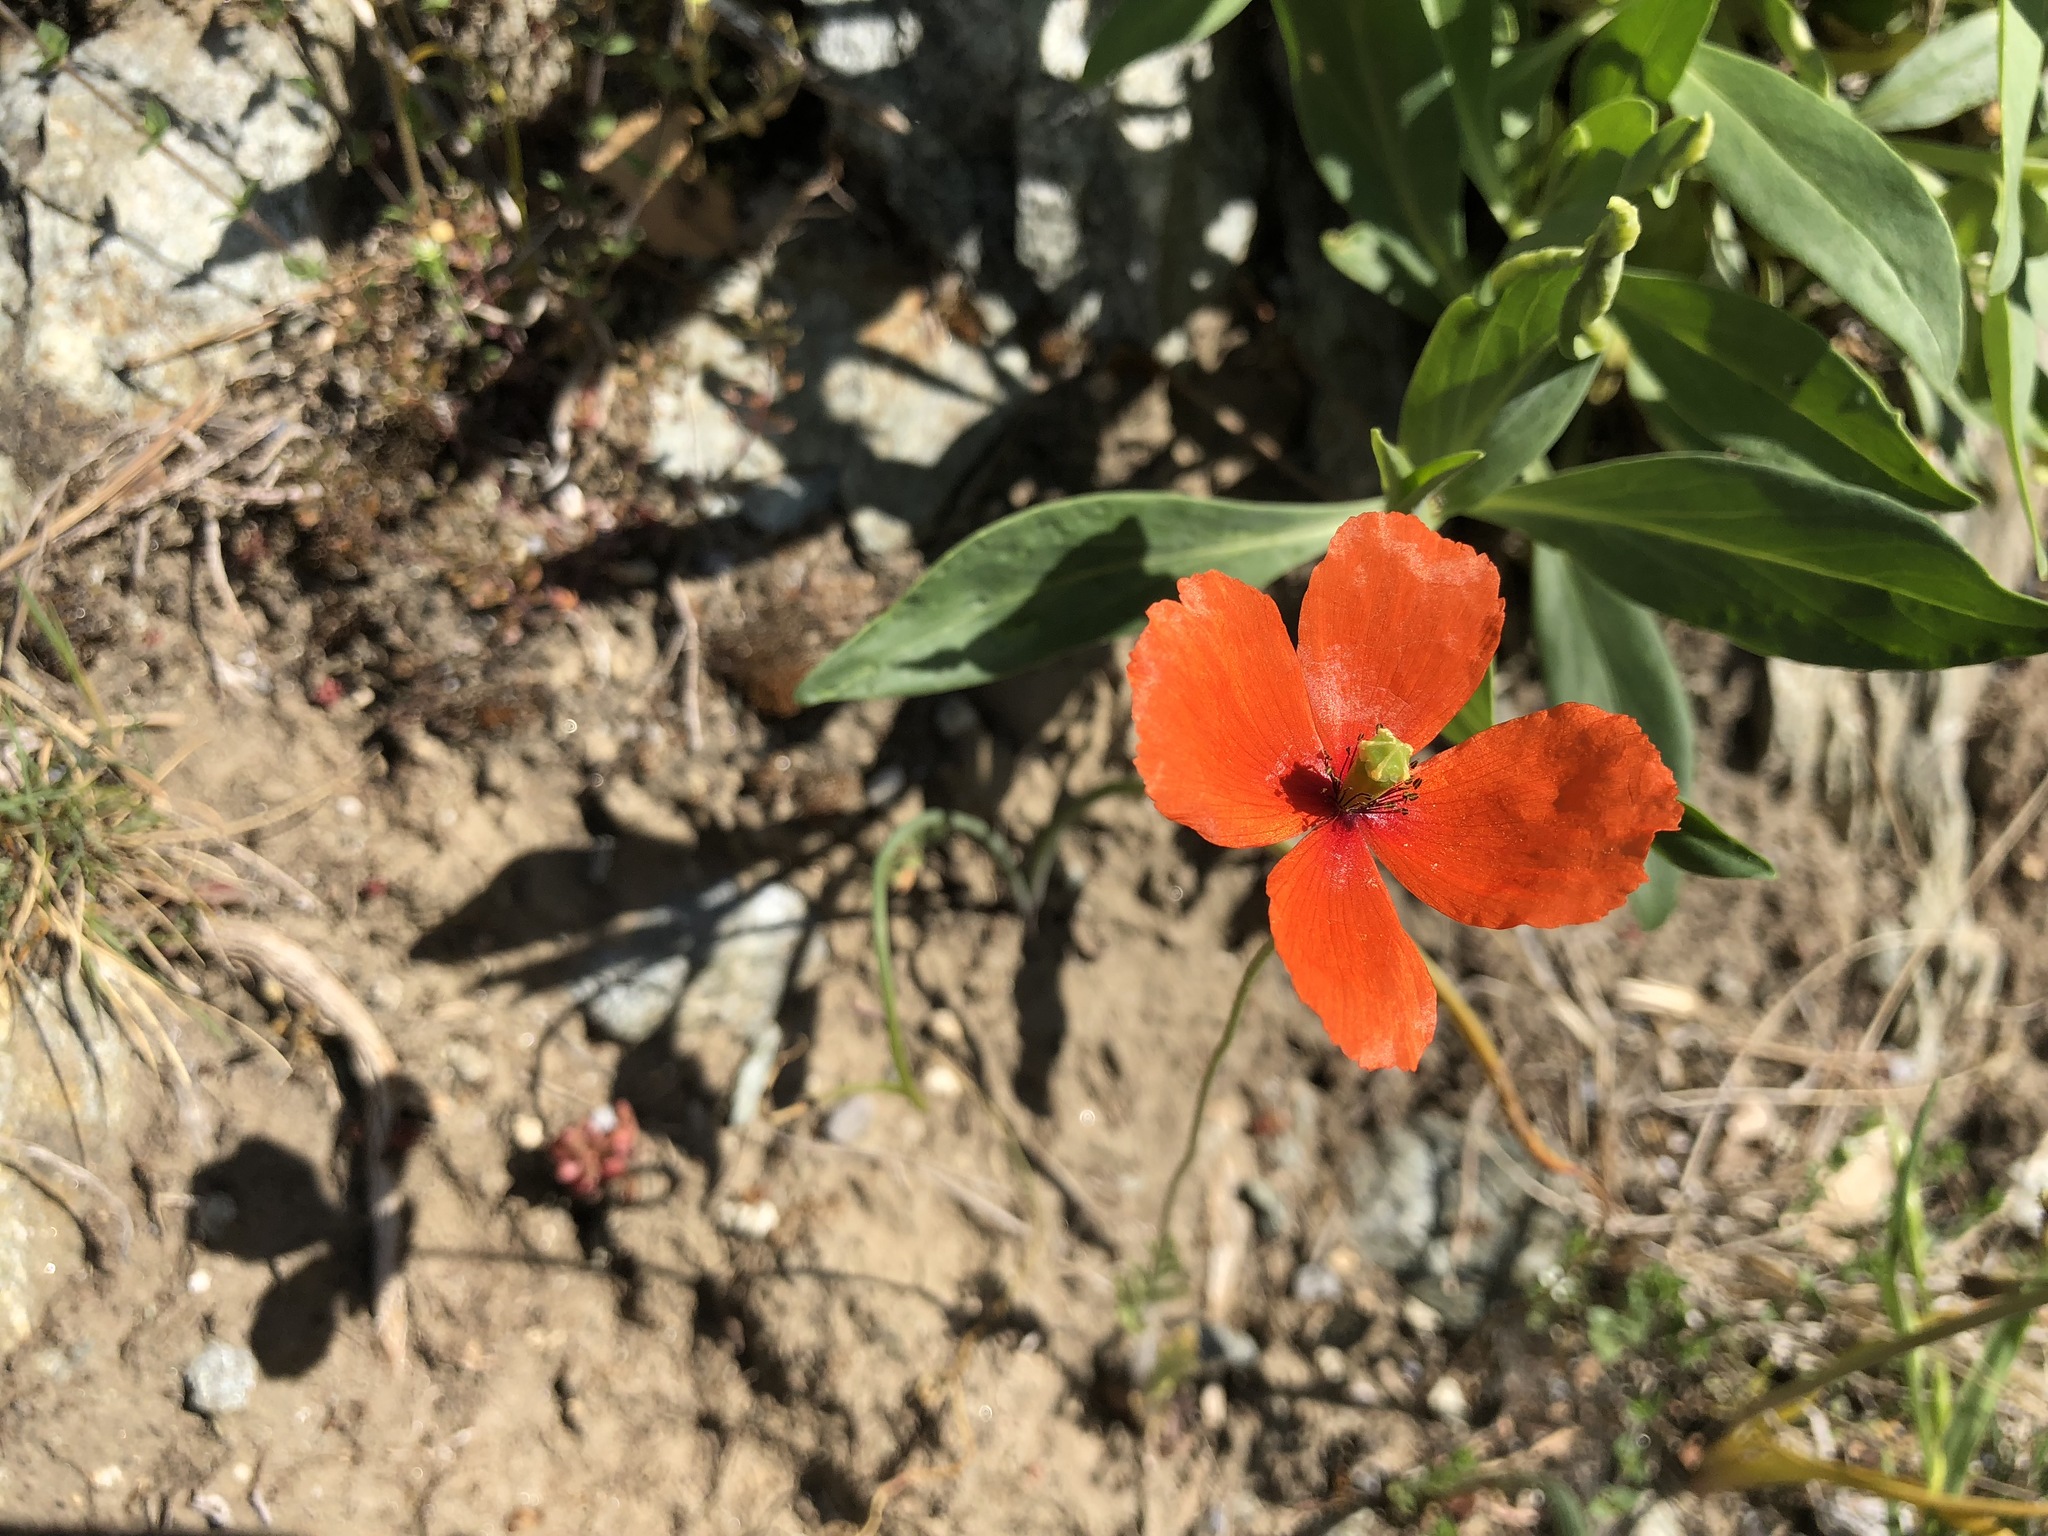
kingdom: Plantae
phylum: Tracheophyta
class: Magnoliopsida
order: Ranunculales
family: Papaveraceae
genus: Papaver
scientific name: Papaver dubium
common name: Long-headed poppy
